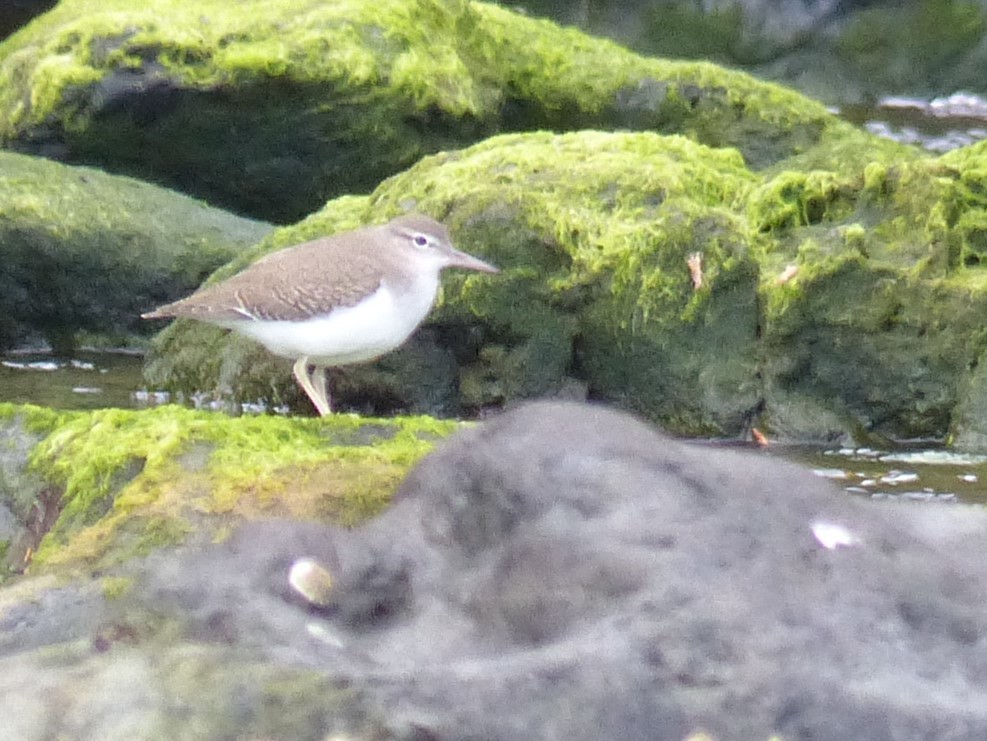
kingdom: Animalia
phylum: Chordata
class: Aves
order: Charadriiformes
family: Scolopacidae
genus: Actitis
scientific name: Actitis macularius
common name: Spotted sandpiper
